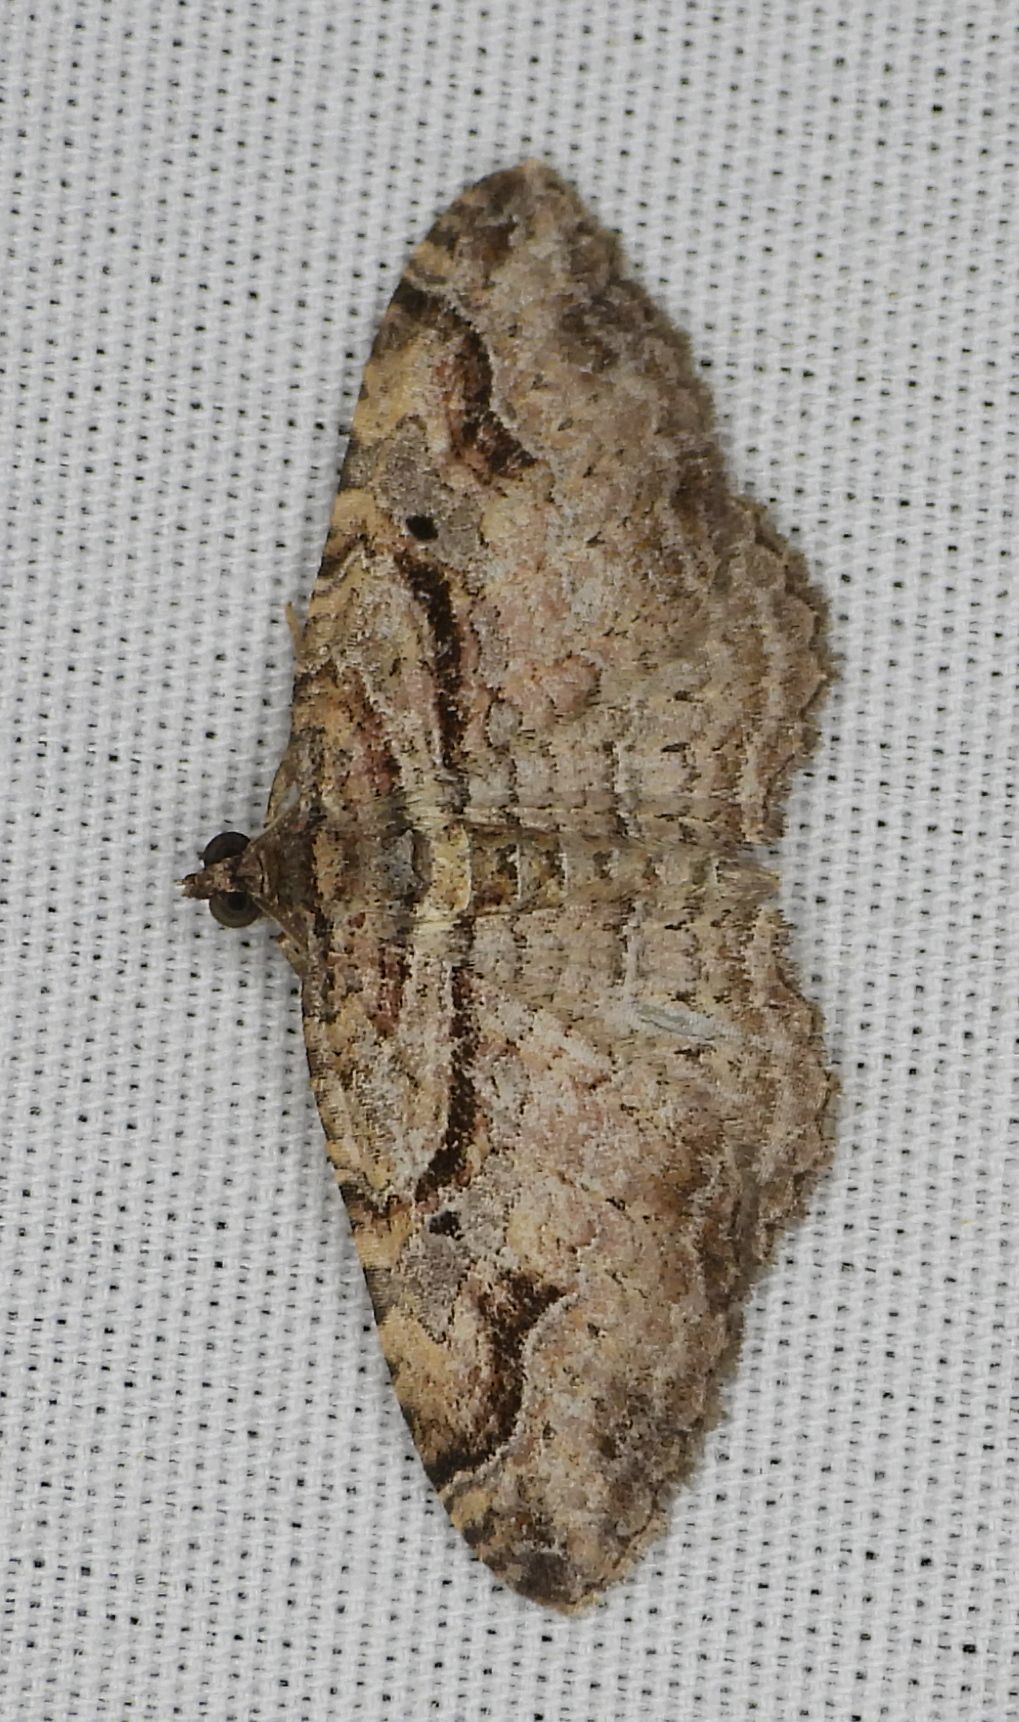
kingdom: Animalia
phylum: Arthropoda
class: Insecta
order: Lepidoptera
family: Geometridae
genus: Costaconvexa
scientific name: Costaconvexa centrostrigaria
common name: Bent-line carpet
